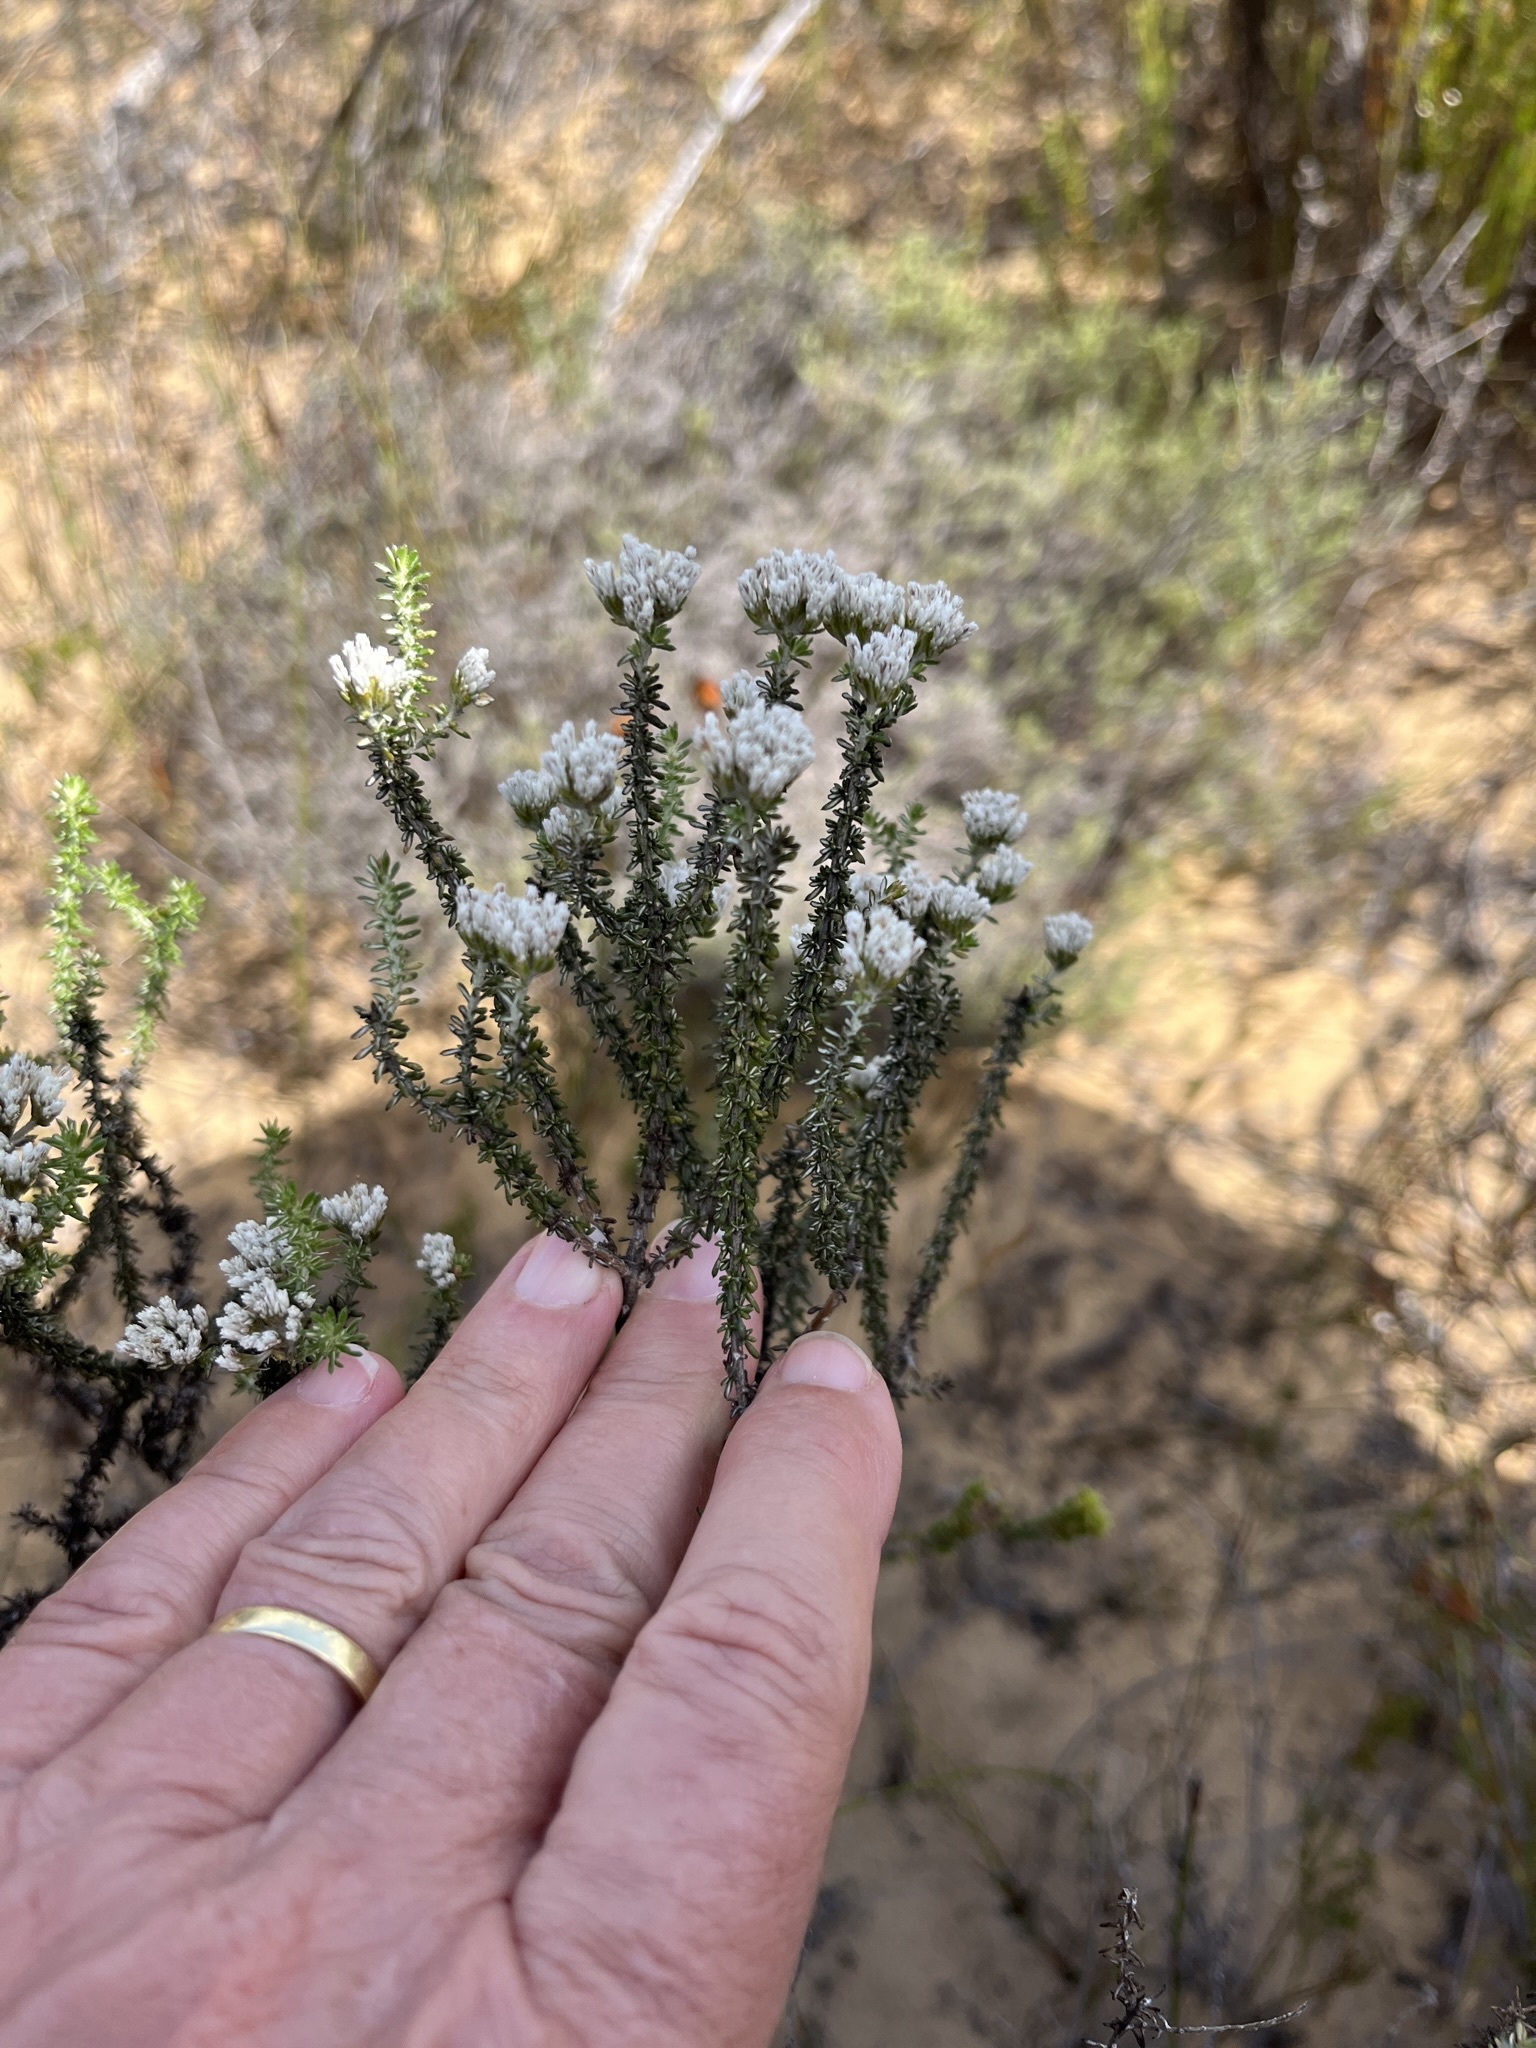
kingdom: Plantae
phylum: Tracheophyta
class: Magnoliopsida
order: Asterales
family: Asteraceae
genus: Metalasia
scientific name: Metalasia brevifolia
